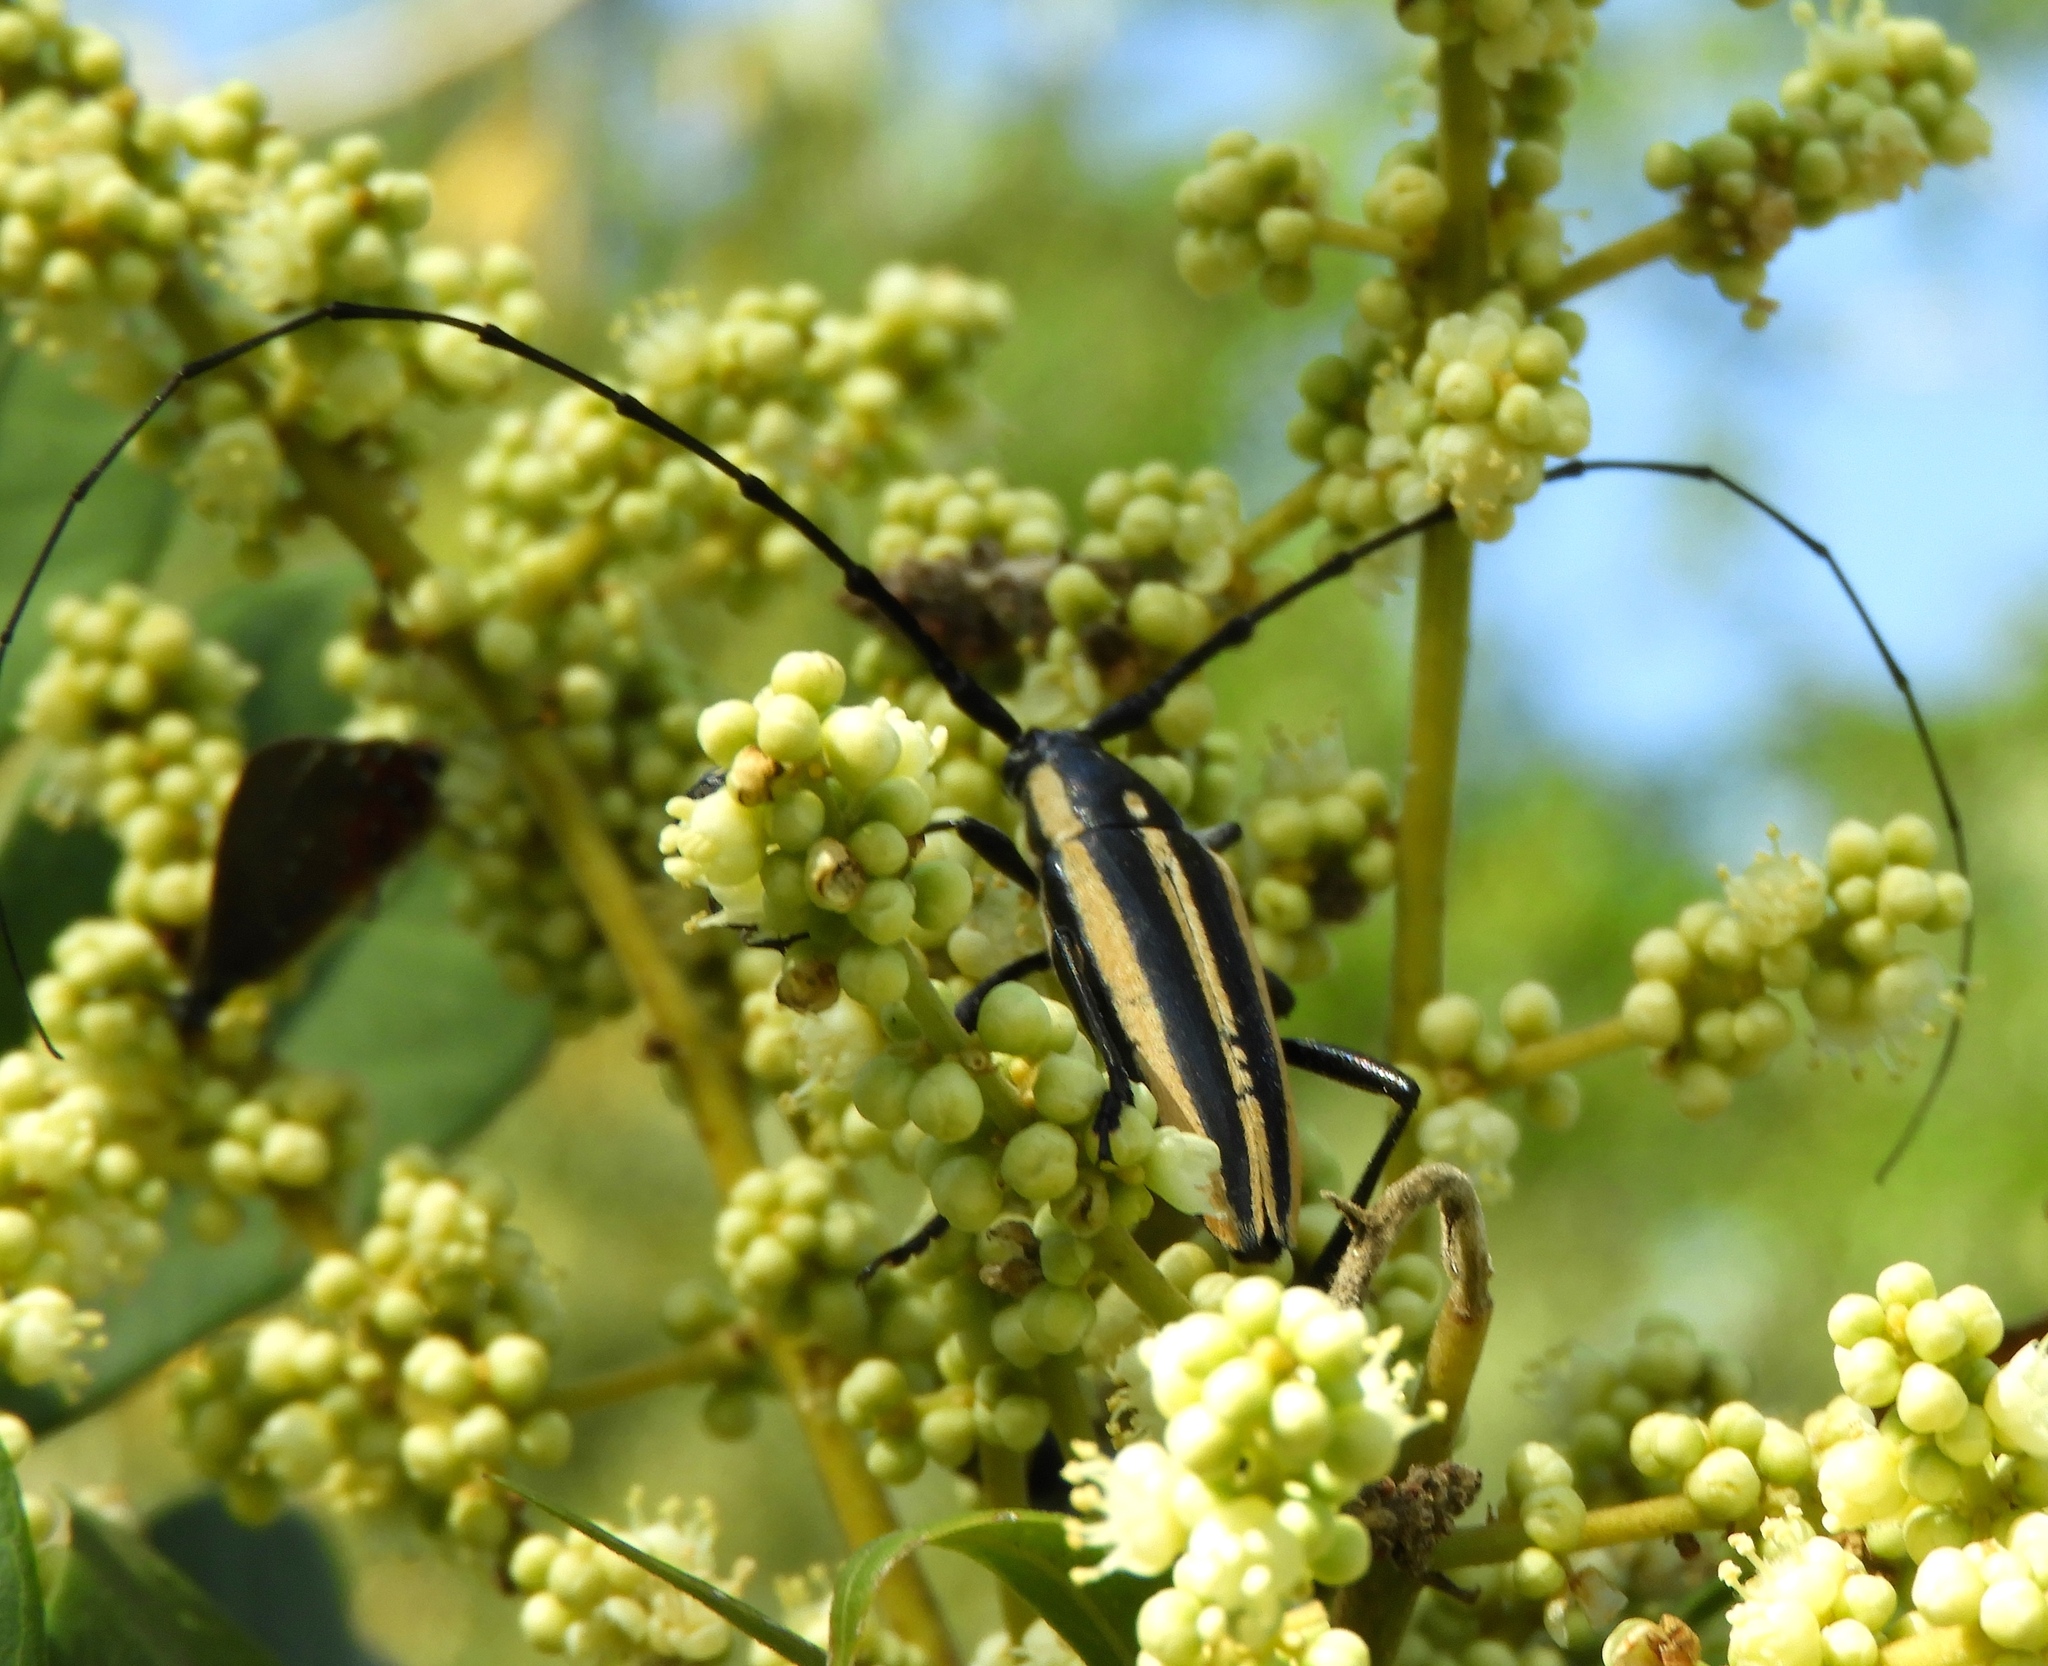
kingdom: Animalia
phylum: Arthropoda
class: Insecta
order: Coleoptera
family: Cerambycidae
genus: Sphaenothecus
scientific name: Sphaenothecus trilineatus
